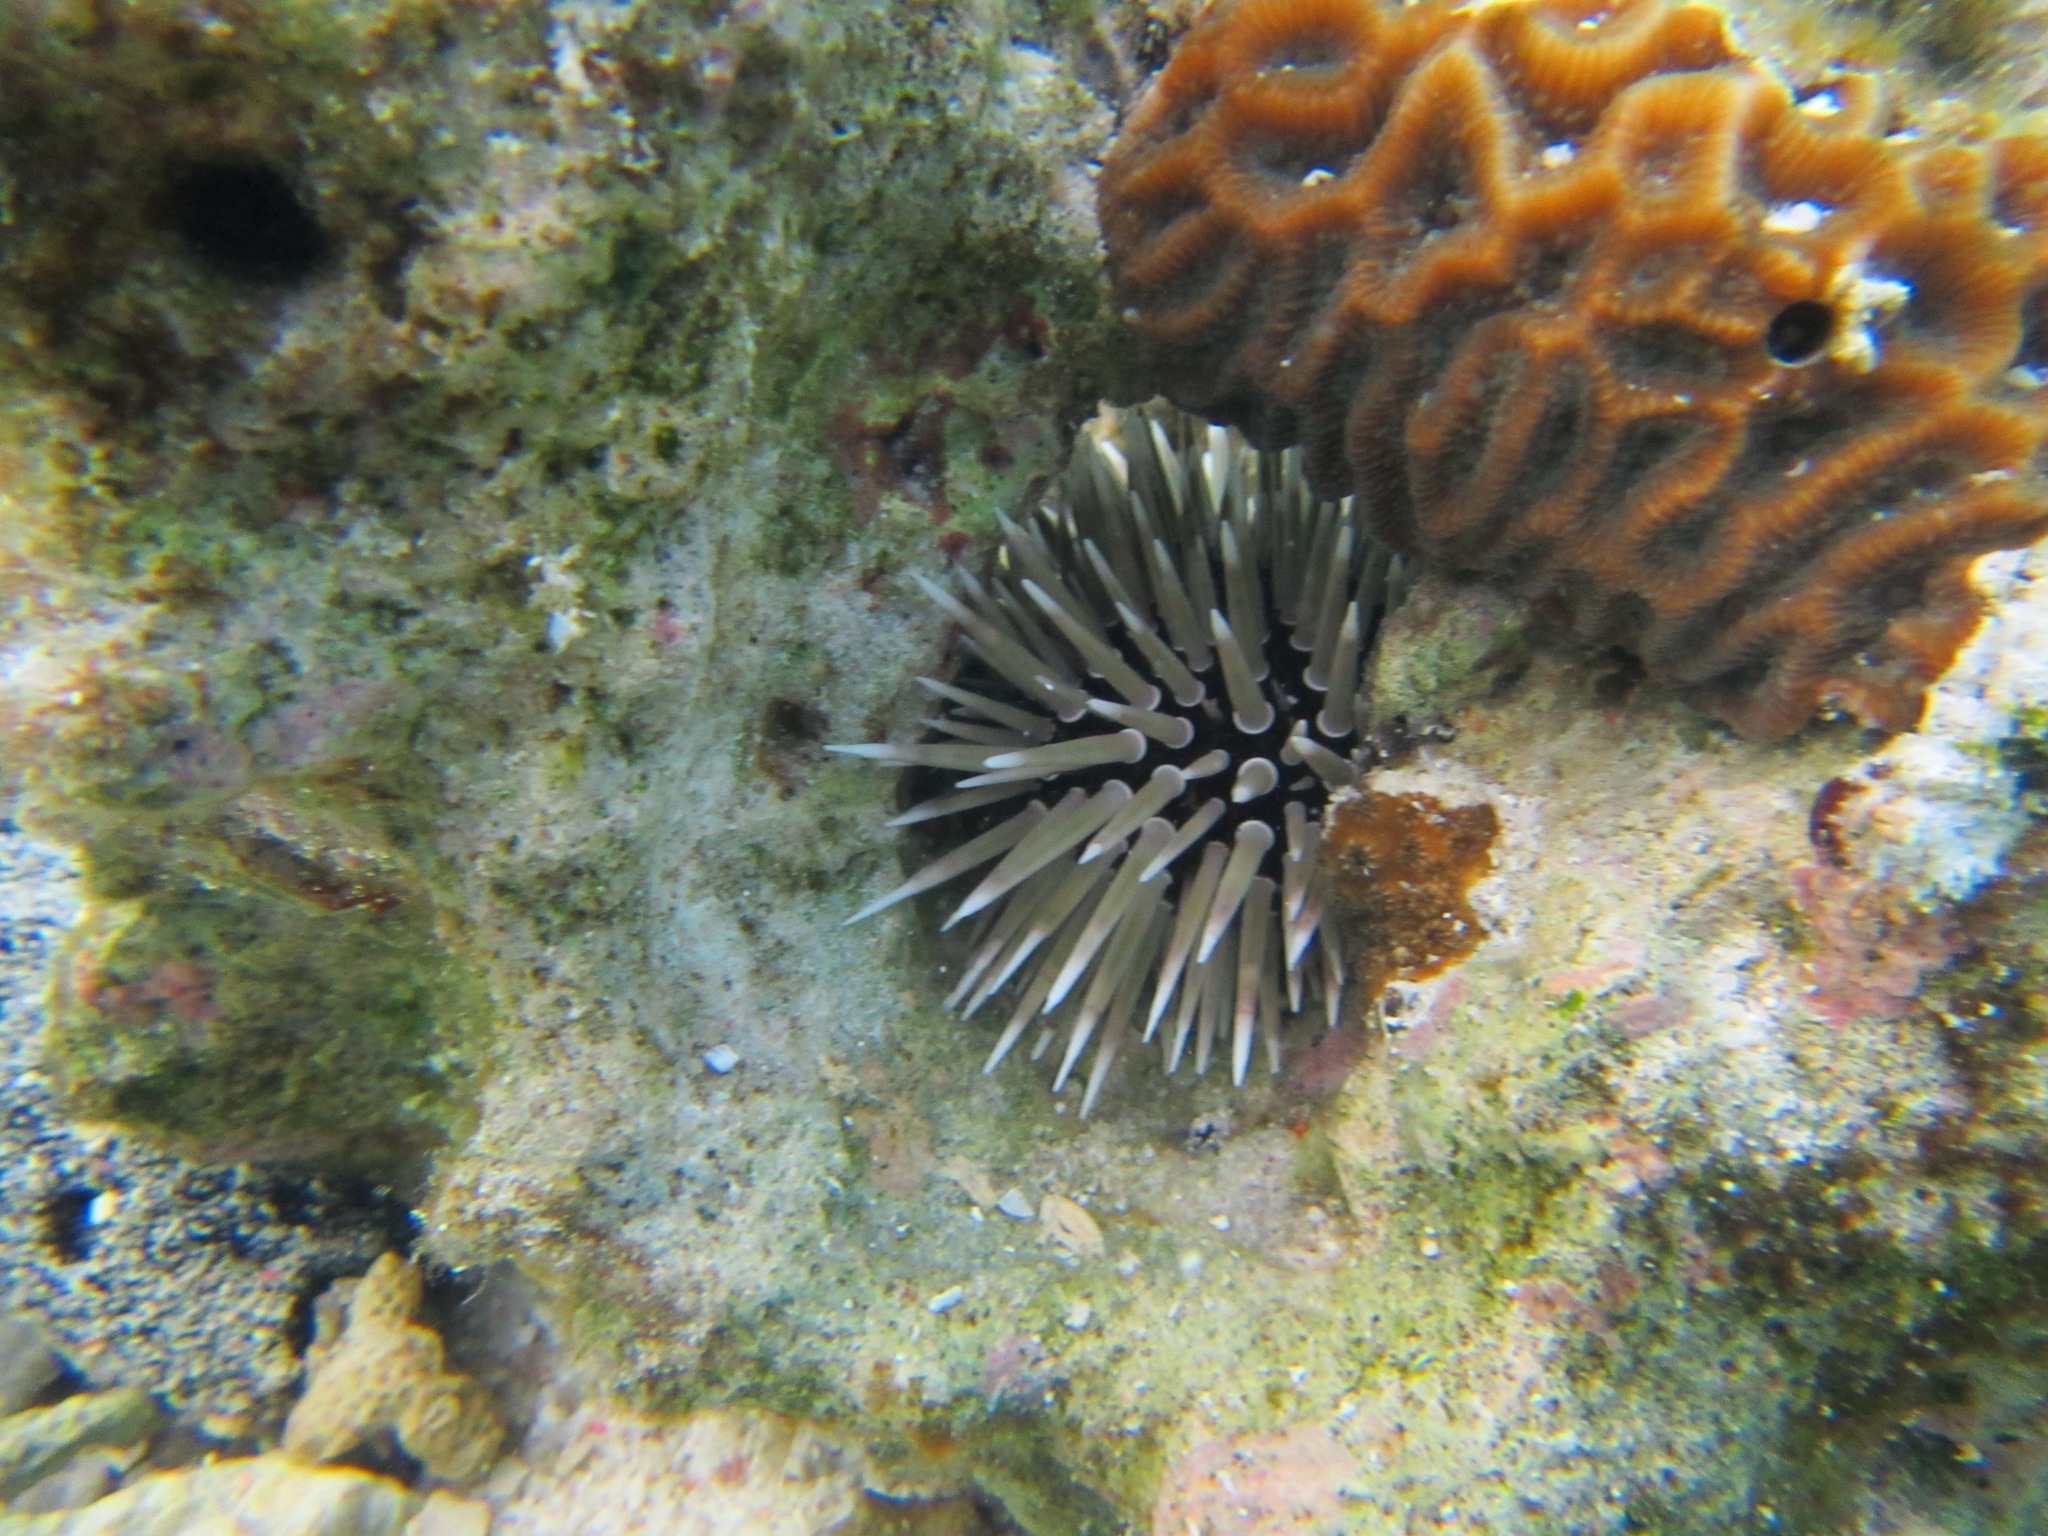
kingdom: Animalia
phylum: Echinodermata
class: Echinoidea
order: Camarodonta
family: Echinometridae
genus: Echinometra
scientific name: Echinometra mathaei
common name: Rock-boring urchin
